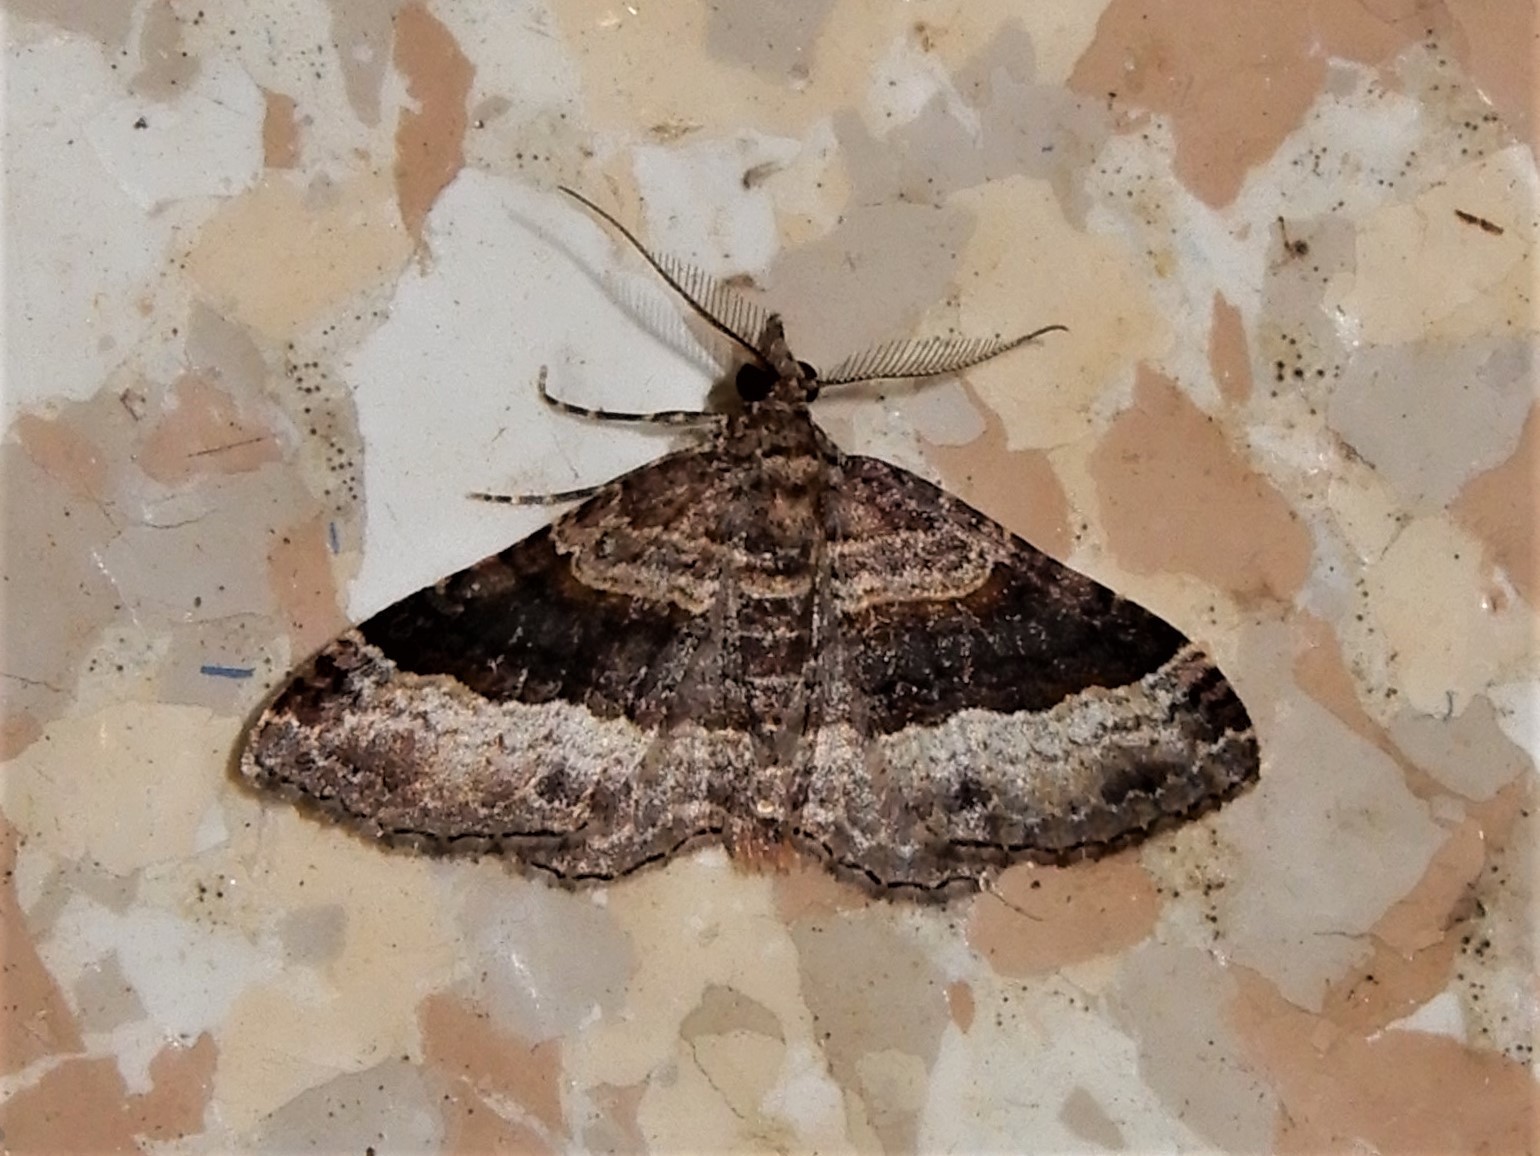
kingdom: Animalia
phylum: Arthropoda
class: Insecta
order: Lepidoptera
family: Geometridae
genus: Epyaxa
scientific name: Epyaxa lucidata
